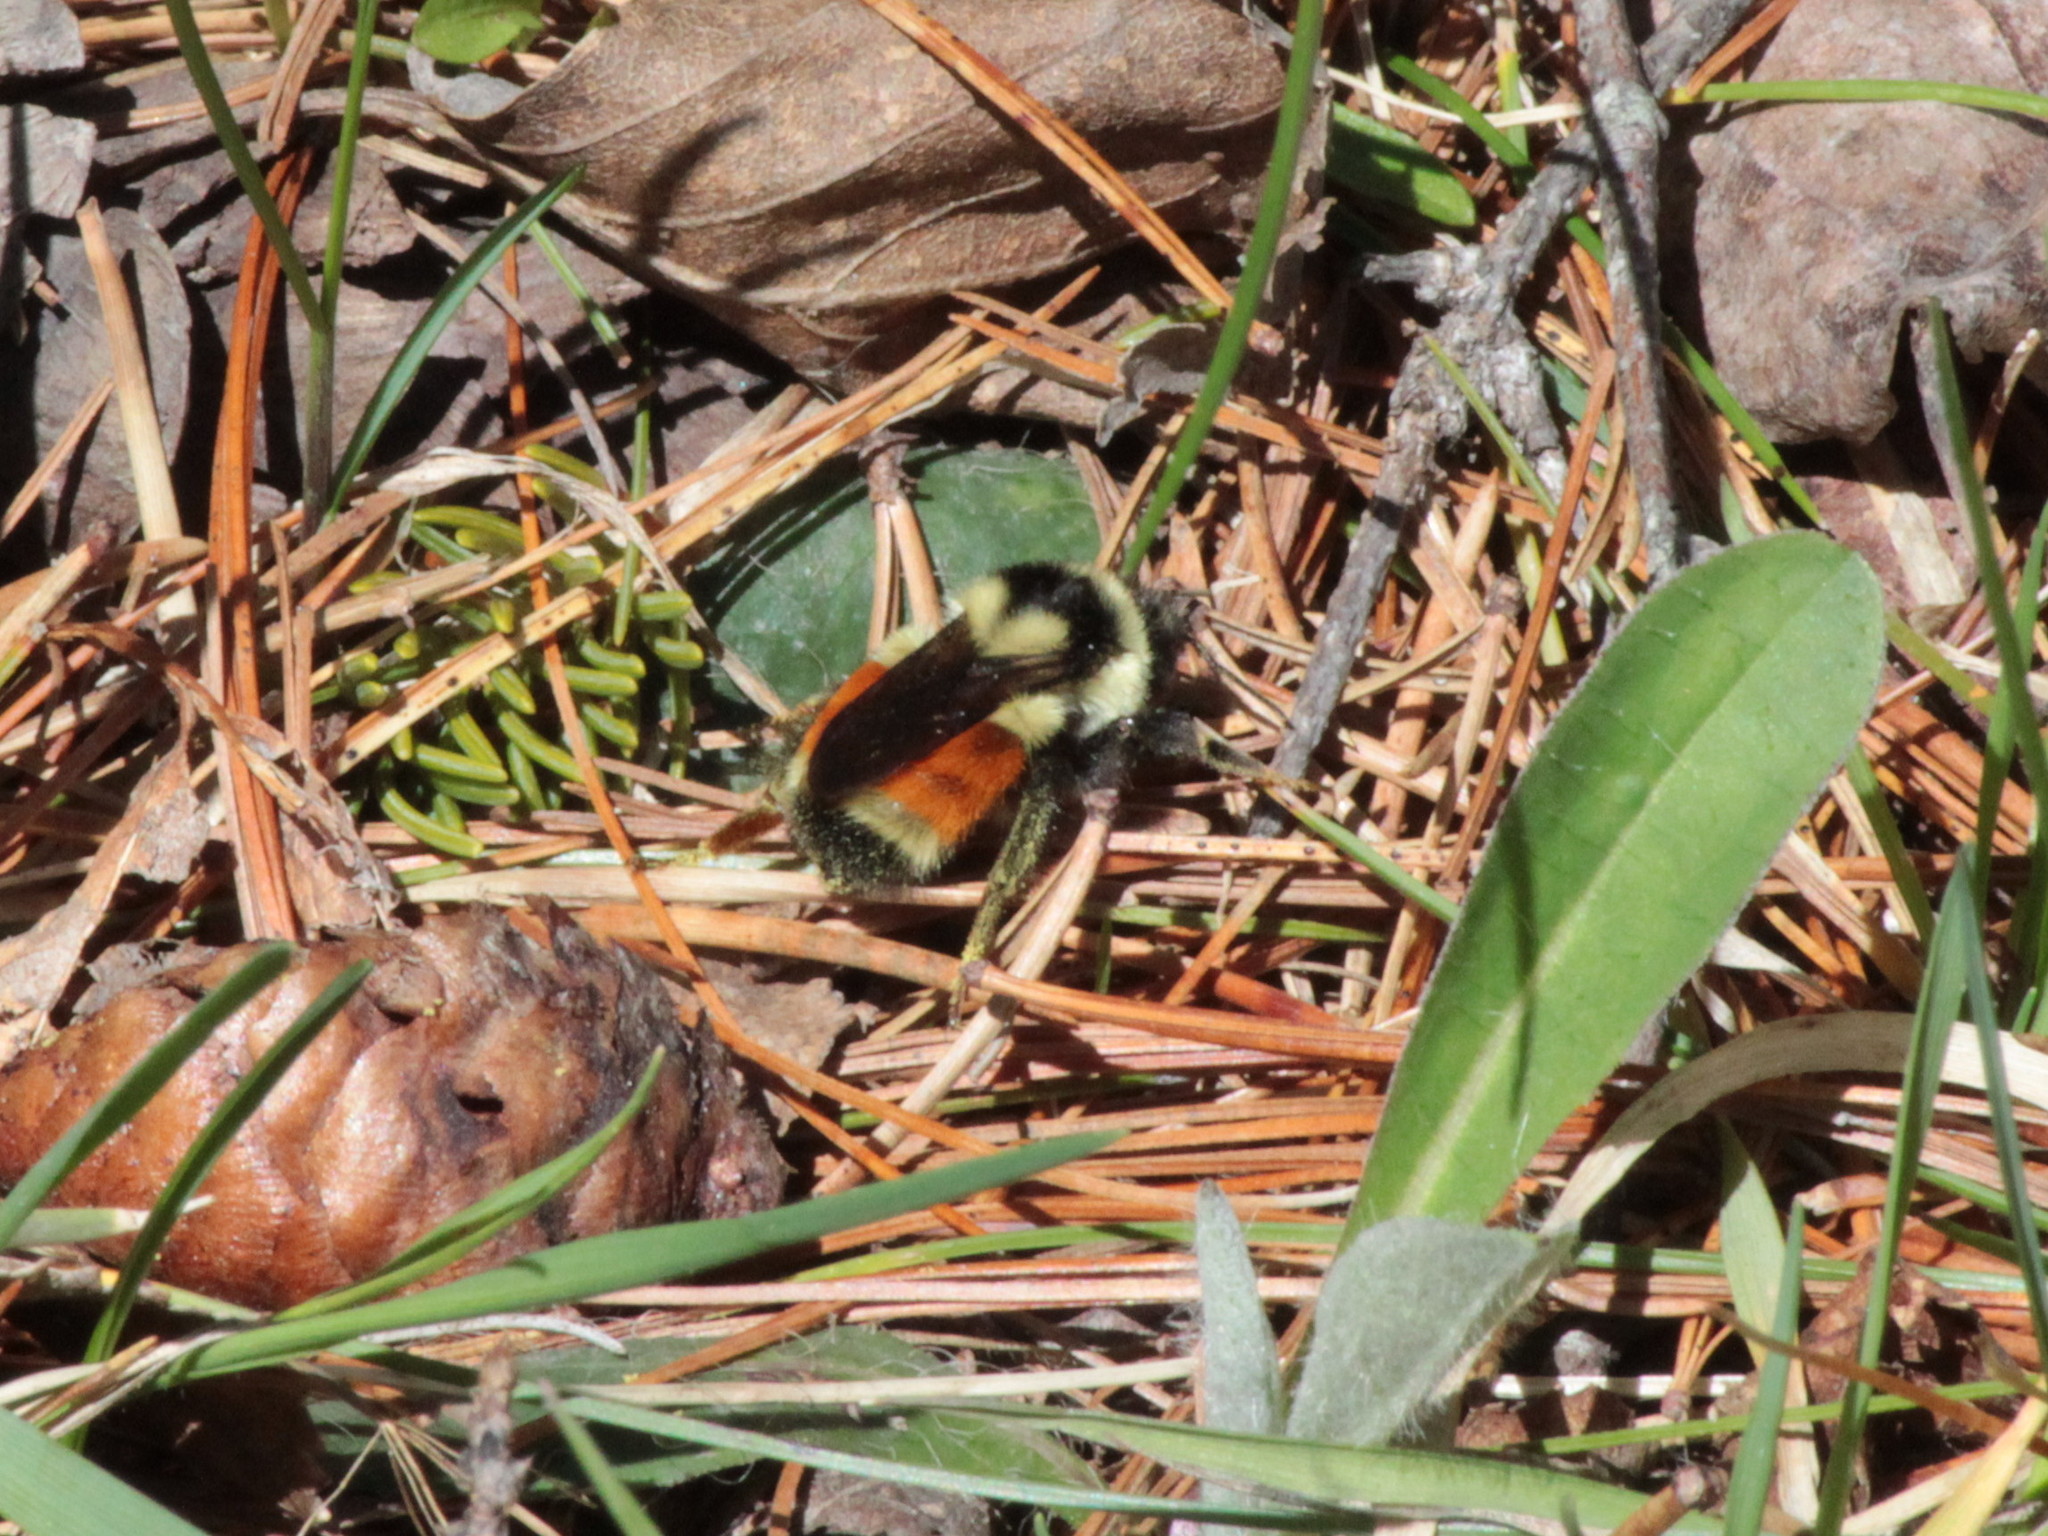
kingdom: Animalia
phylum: Arthropoda
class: Insecta
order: Hymenoptera
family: Apidae
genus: Bombus
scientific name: Bombus ternarius
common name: Tri-colored bumble bee
